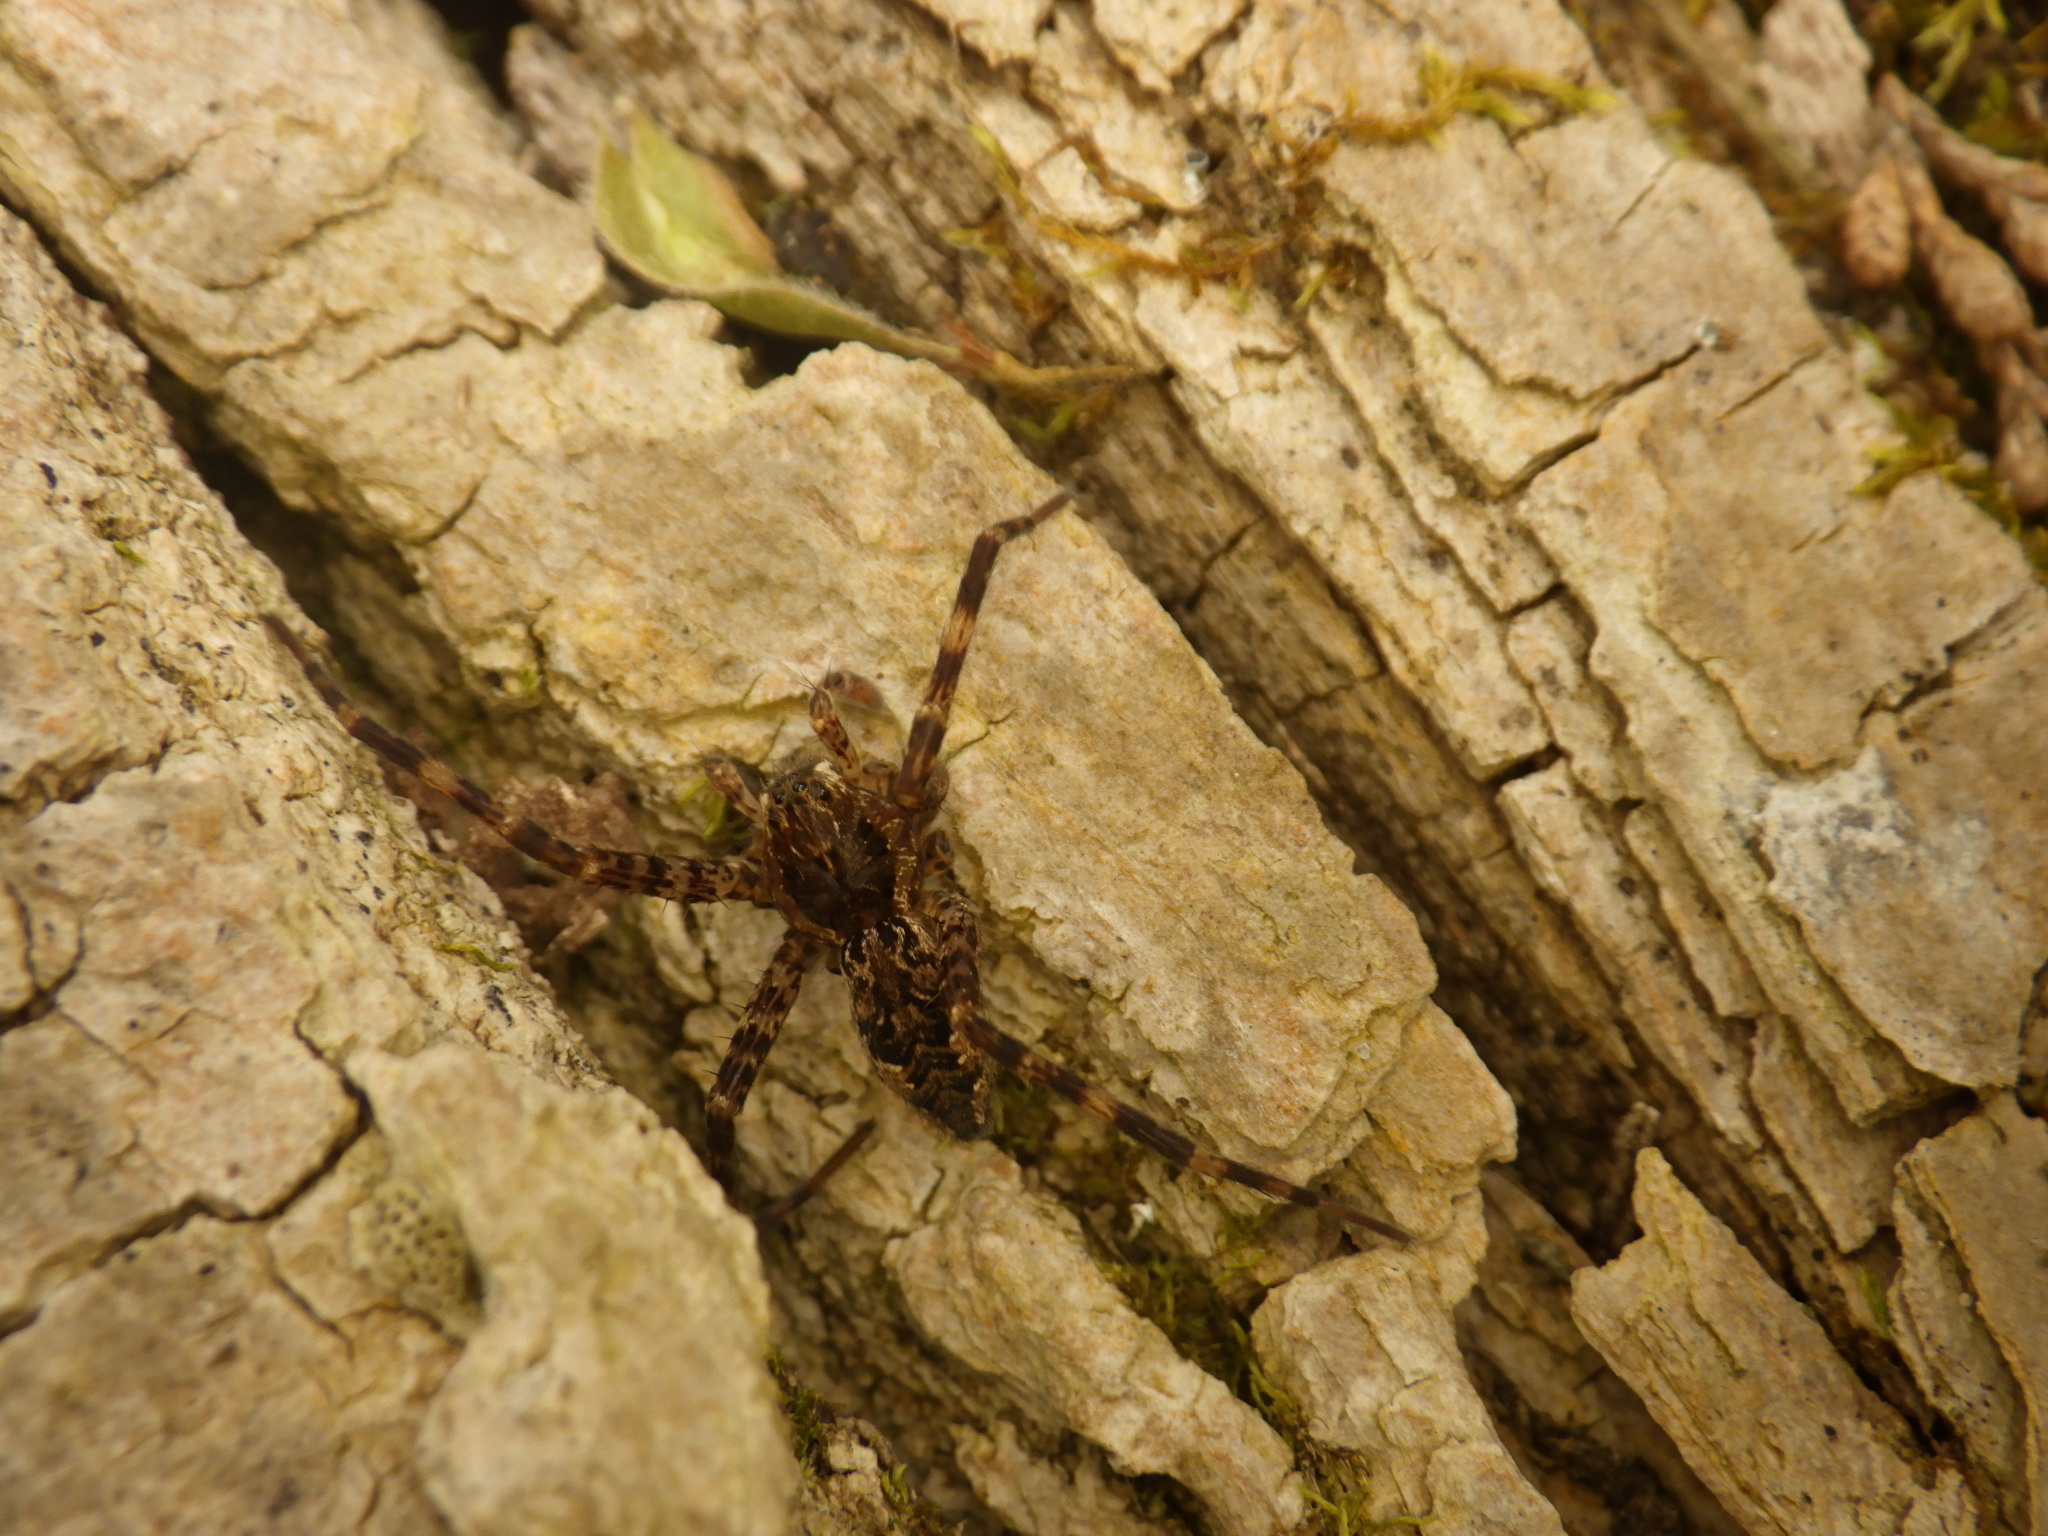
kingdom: Animalia
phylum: Arthropoda
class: Arachnida
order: Araneae
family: Pisauridae
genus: Dolomedes
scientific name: Dolomedes tenebrosus
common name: Dark fishing spider
